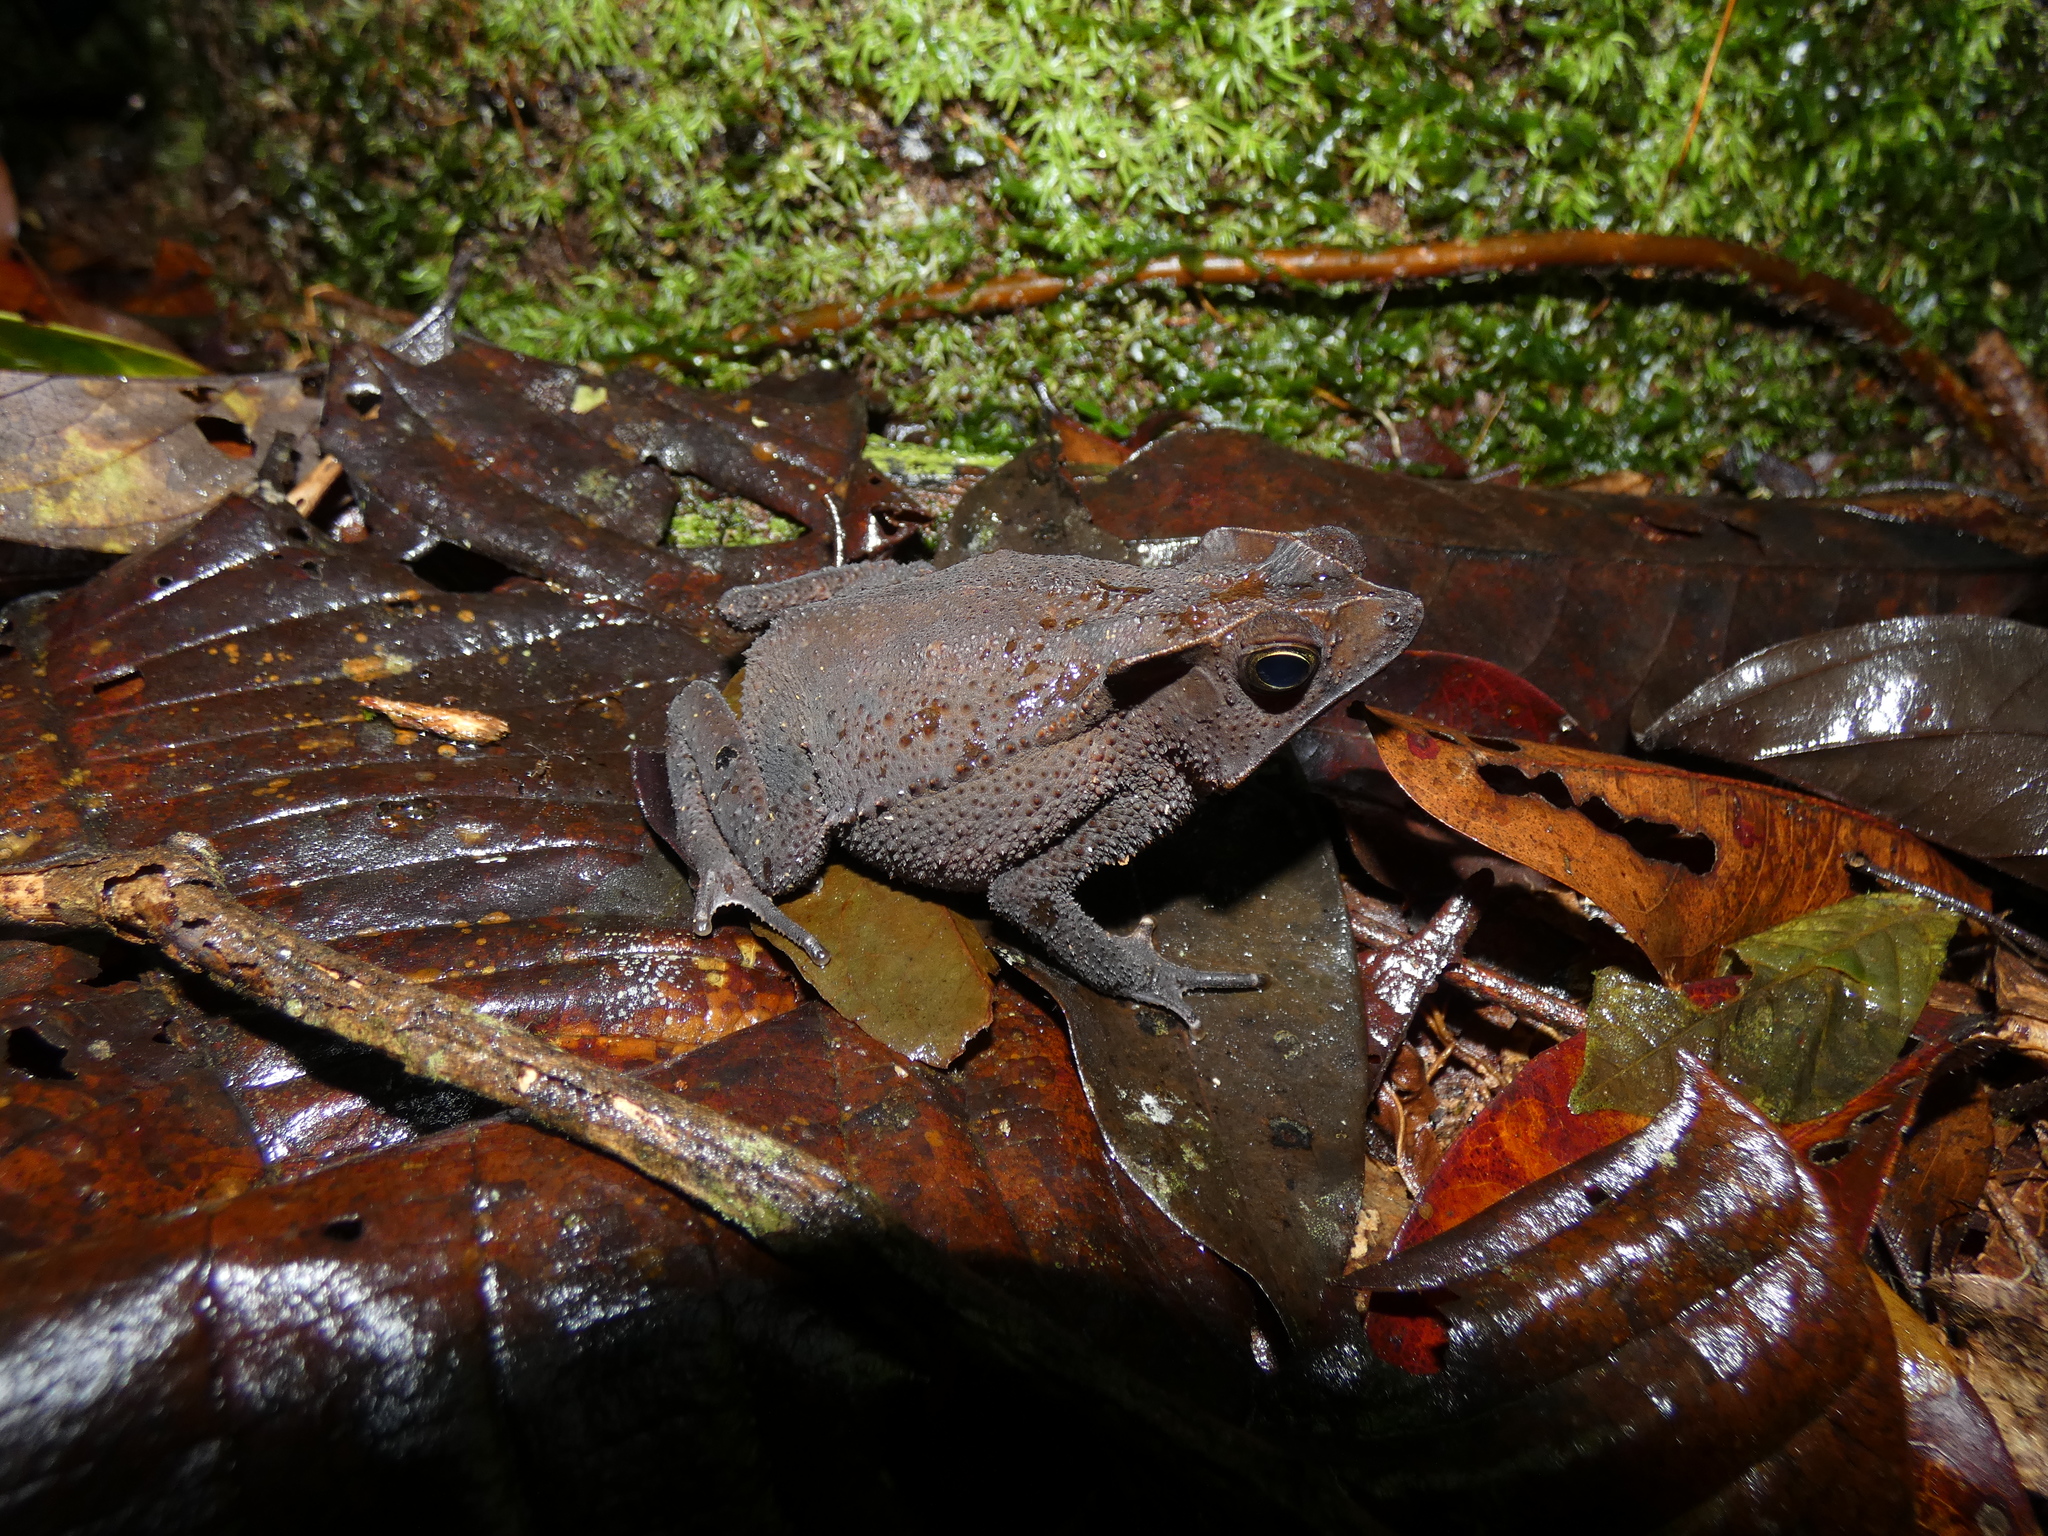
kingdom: Animalia
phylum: Chordata
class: Amphibia
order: Anura
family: Bufonidae
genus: Rhinella
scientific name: Rhinella margaritifera
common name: Mitred toad
